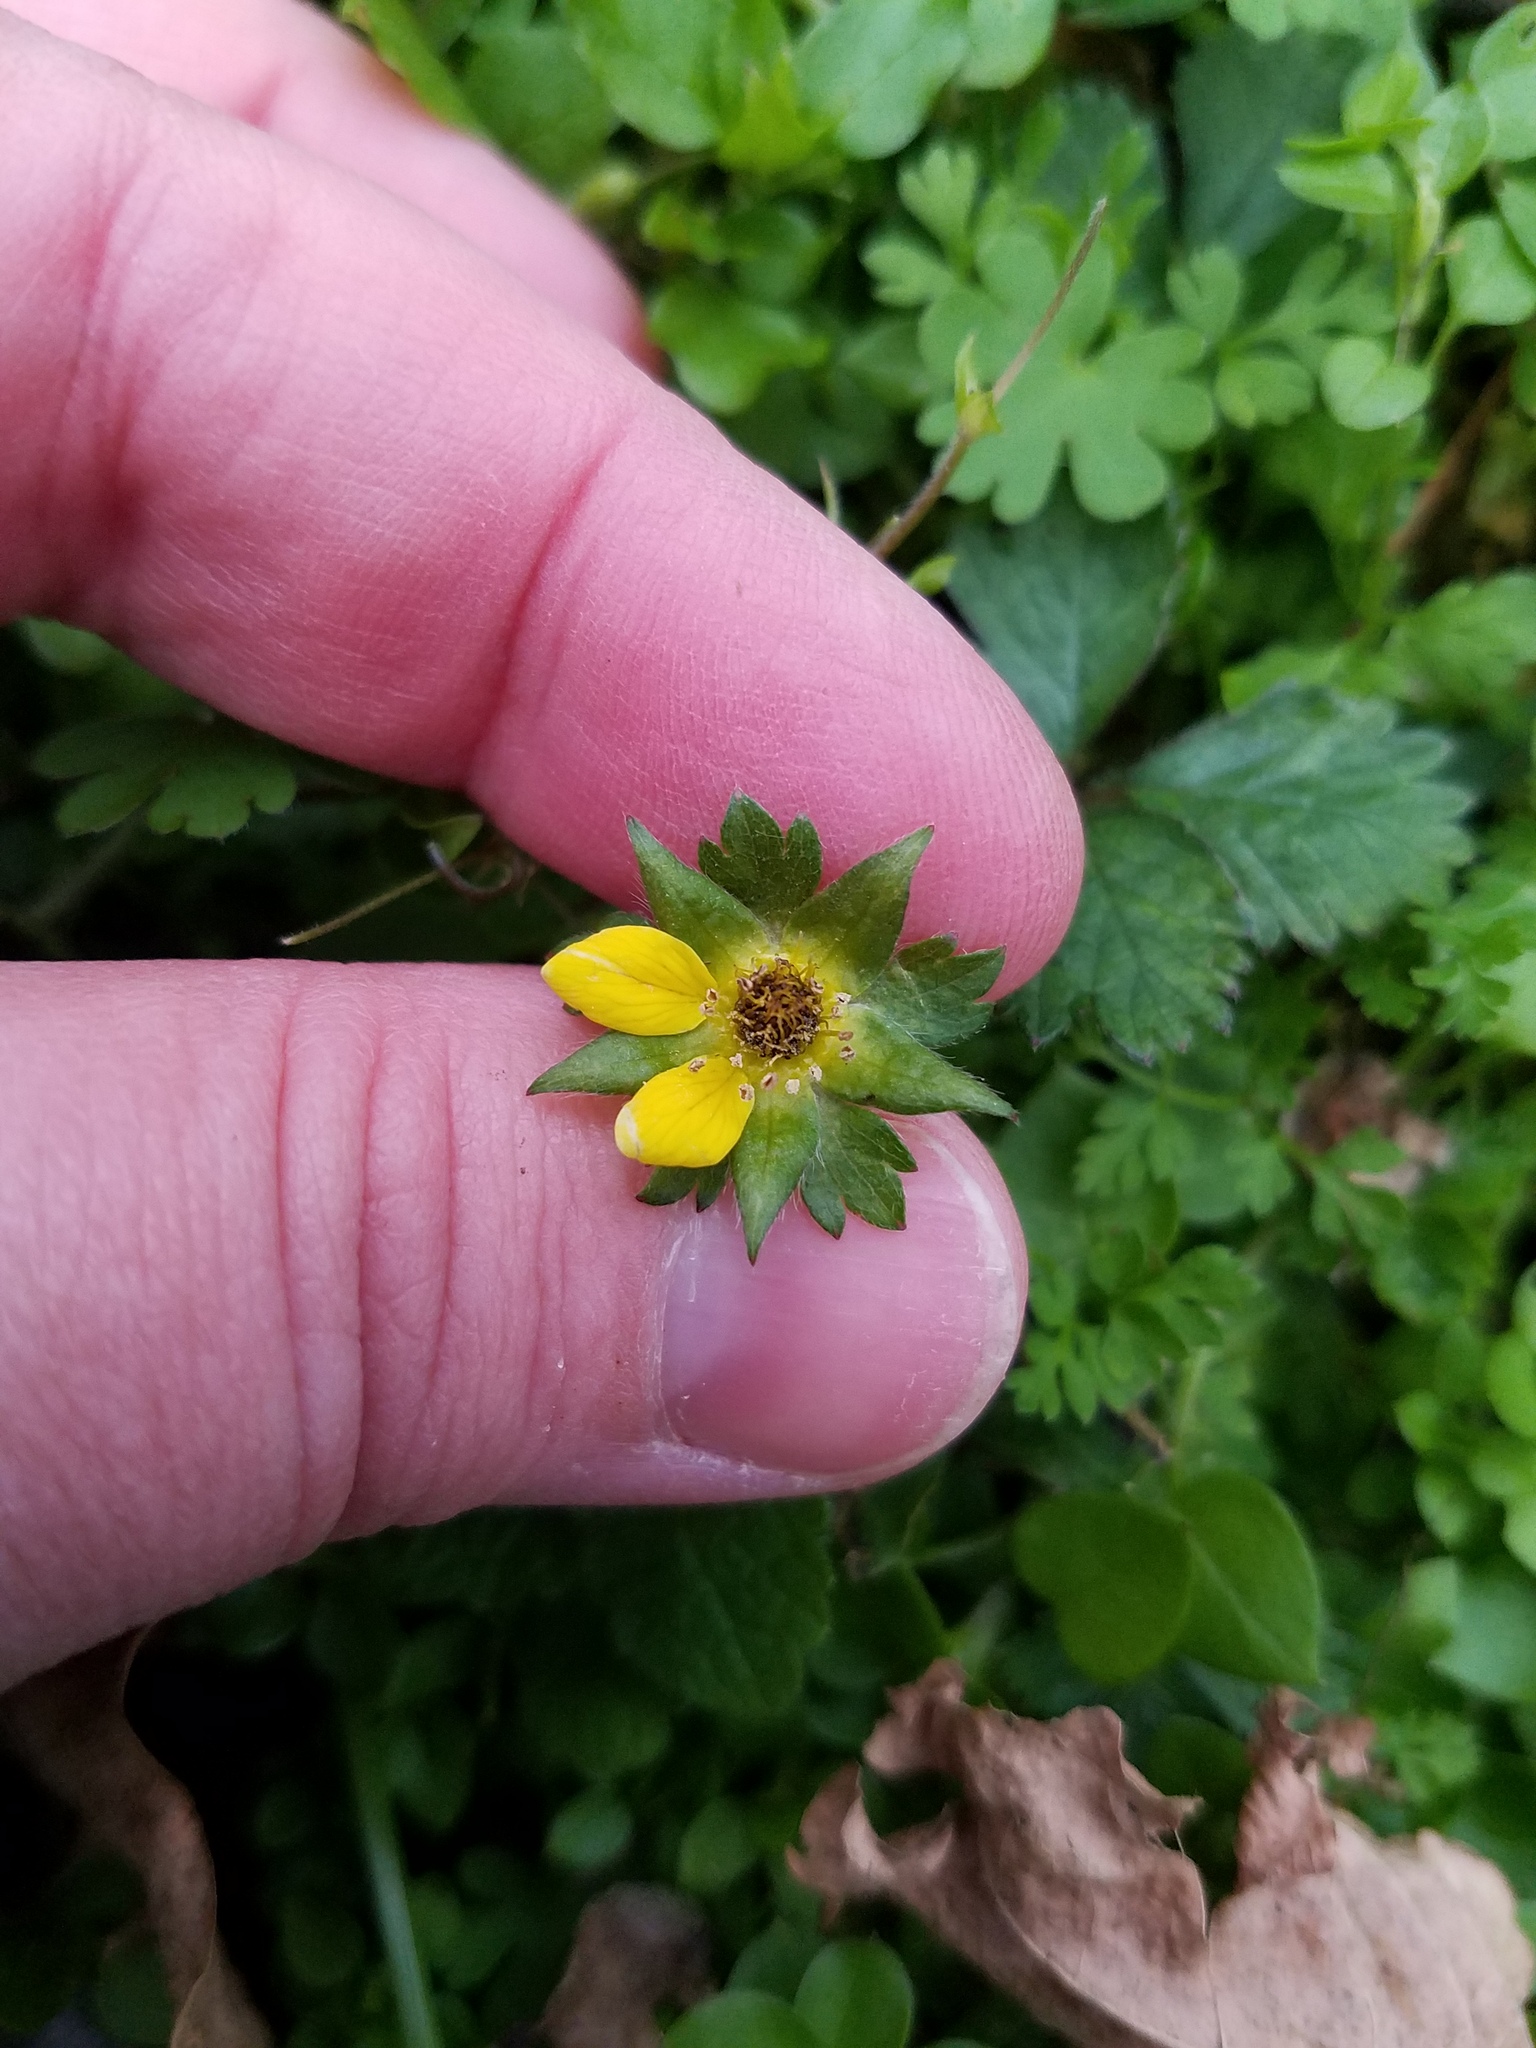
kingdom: Plantae
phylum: Tracheophyta
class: Magnoliopsida
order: Rosales
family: Rosaceae
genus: Potentilla
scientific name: Potentilla indica
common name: Yellow-flowered strawberry
